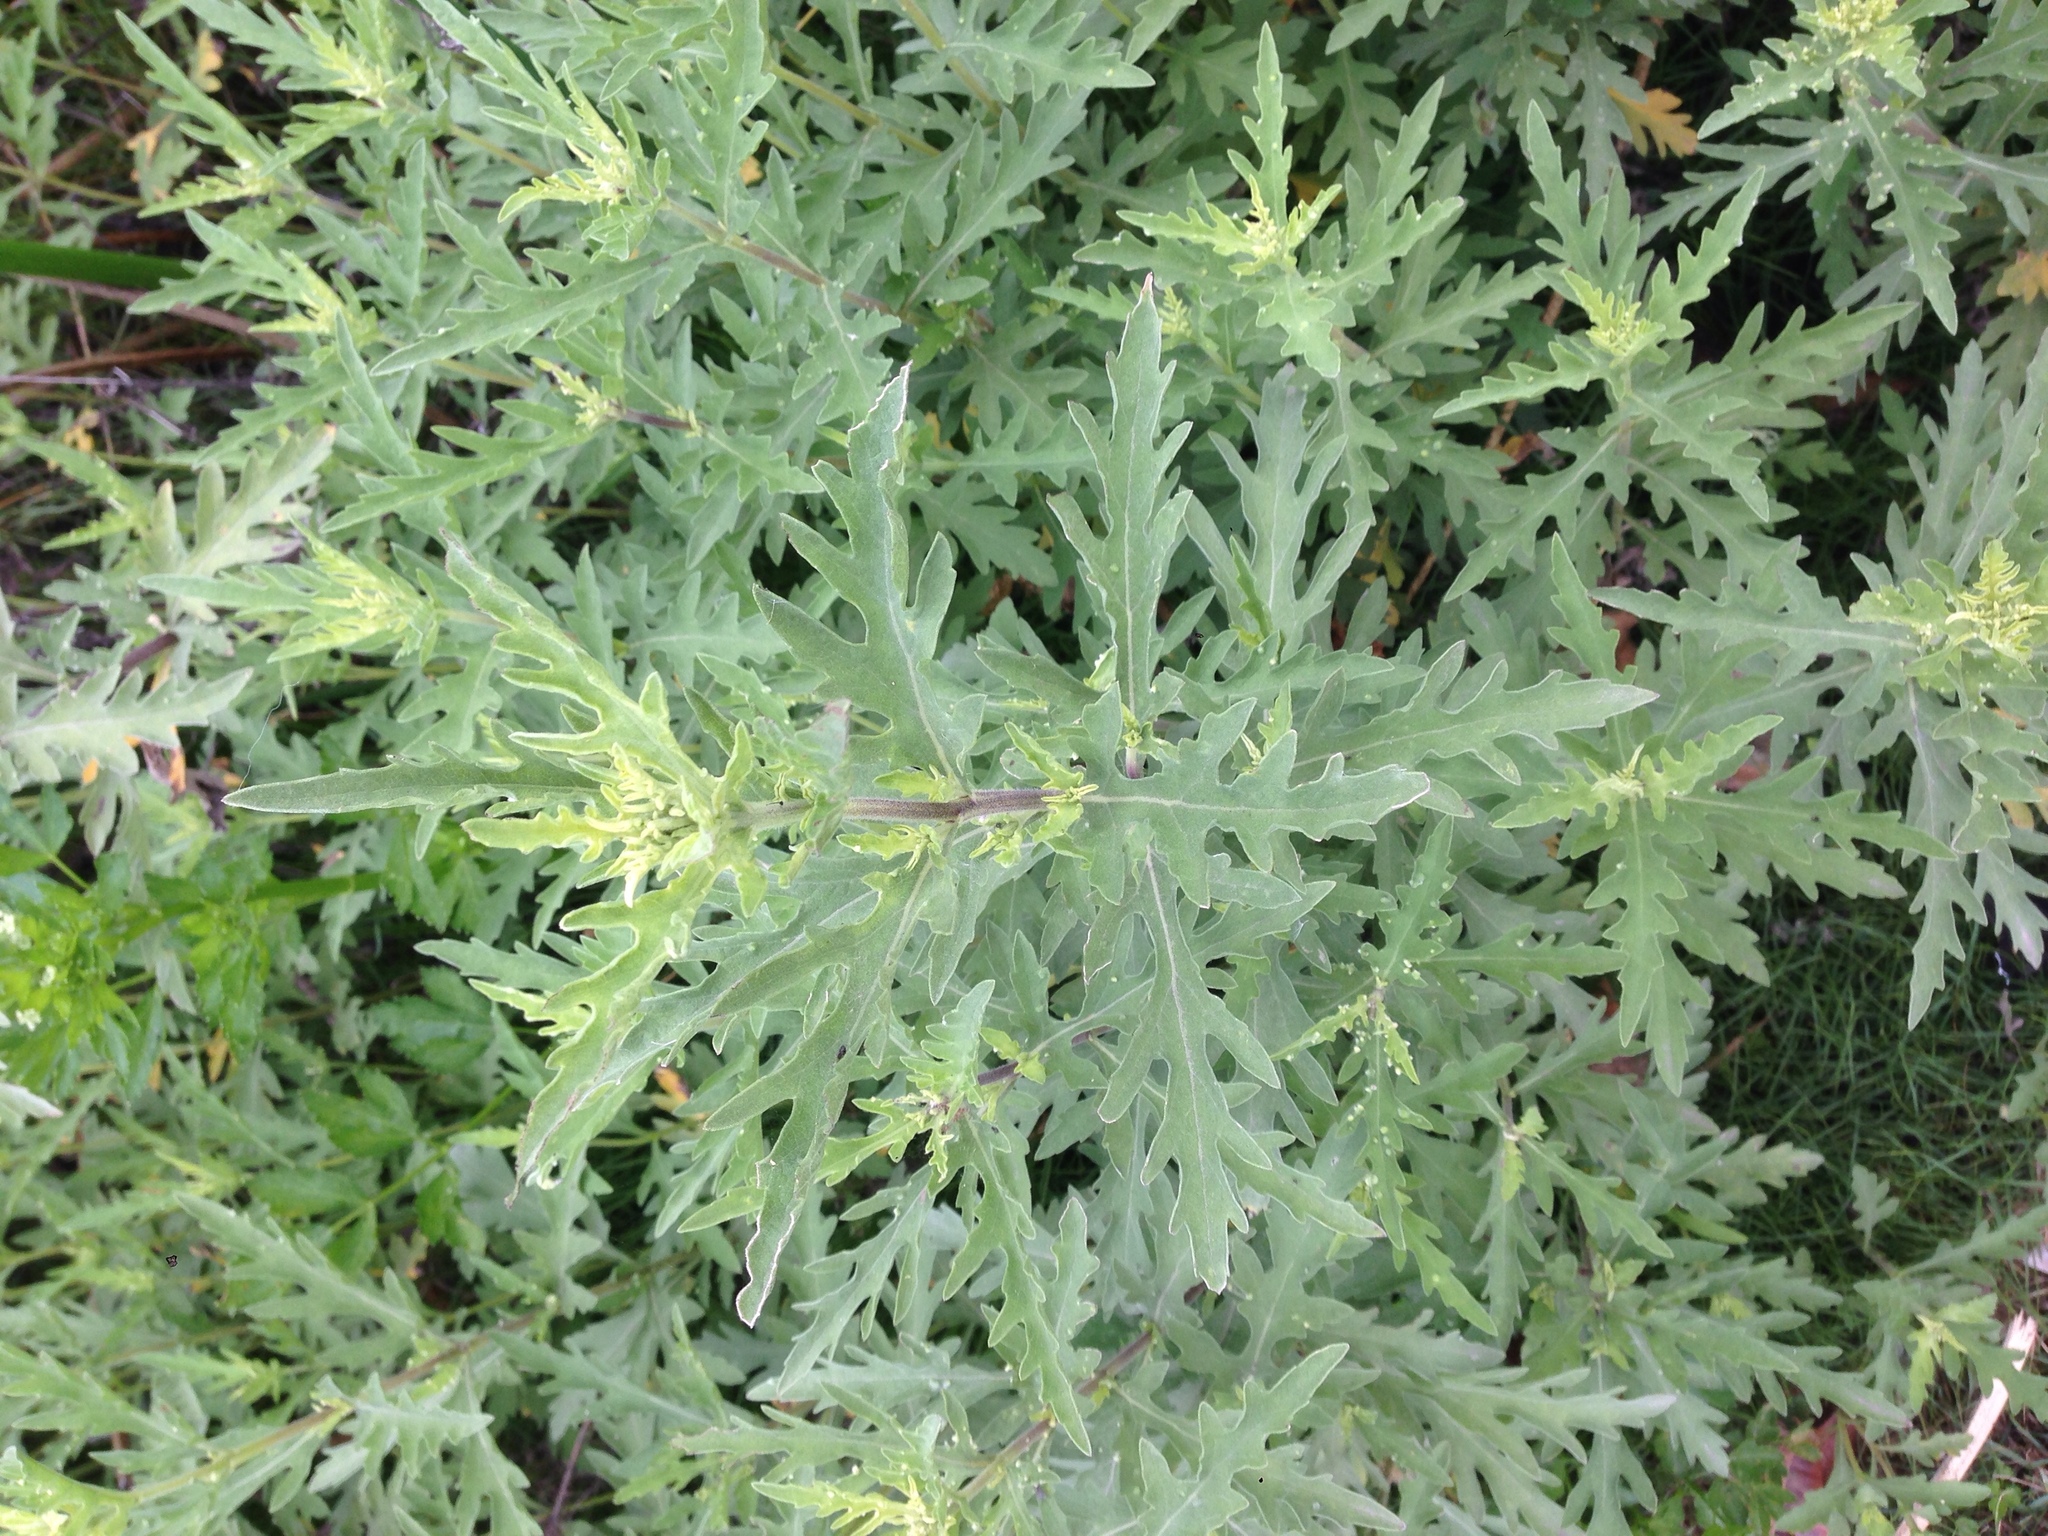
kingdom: Plantae
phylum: Tracheophyta
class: Magnoliopsida
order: Asterales
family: Asteraceae
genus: Ambrosia
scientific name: Ambrosia psilostachya
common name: Perennial ragweed
